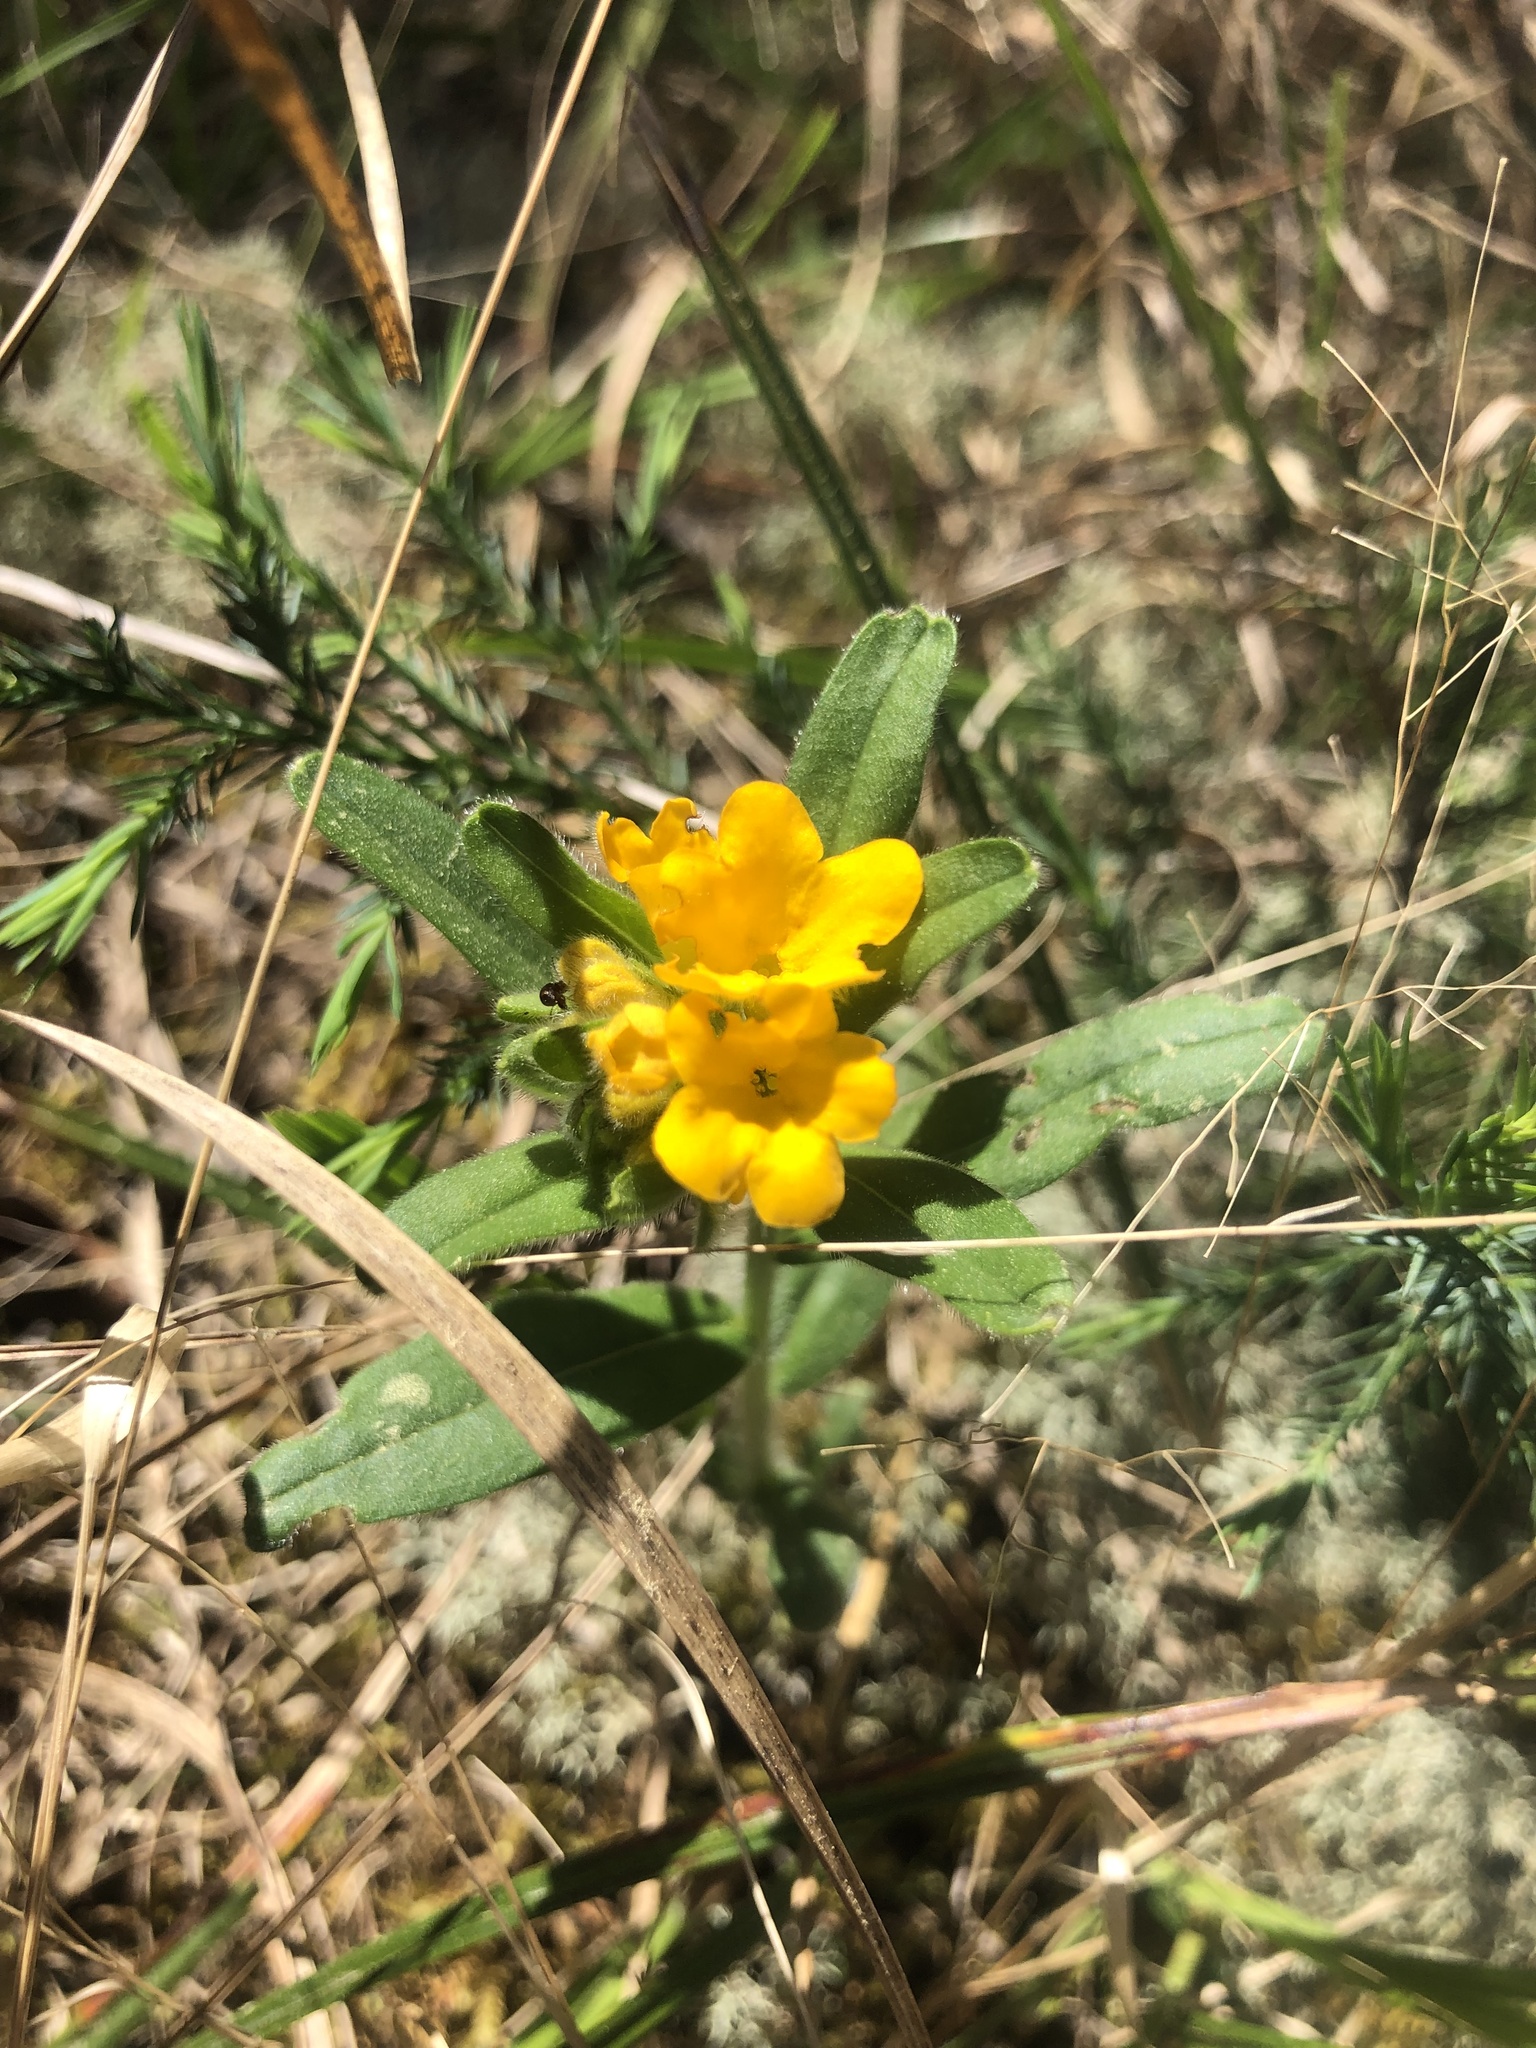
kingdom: Plantae
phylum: Tracheophyta
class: Magnoliopsida
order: Boraginales
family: Boraginaceae
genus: Lithospermum
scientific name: Lithospermum canescens
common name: Hoary puccoon
